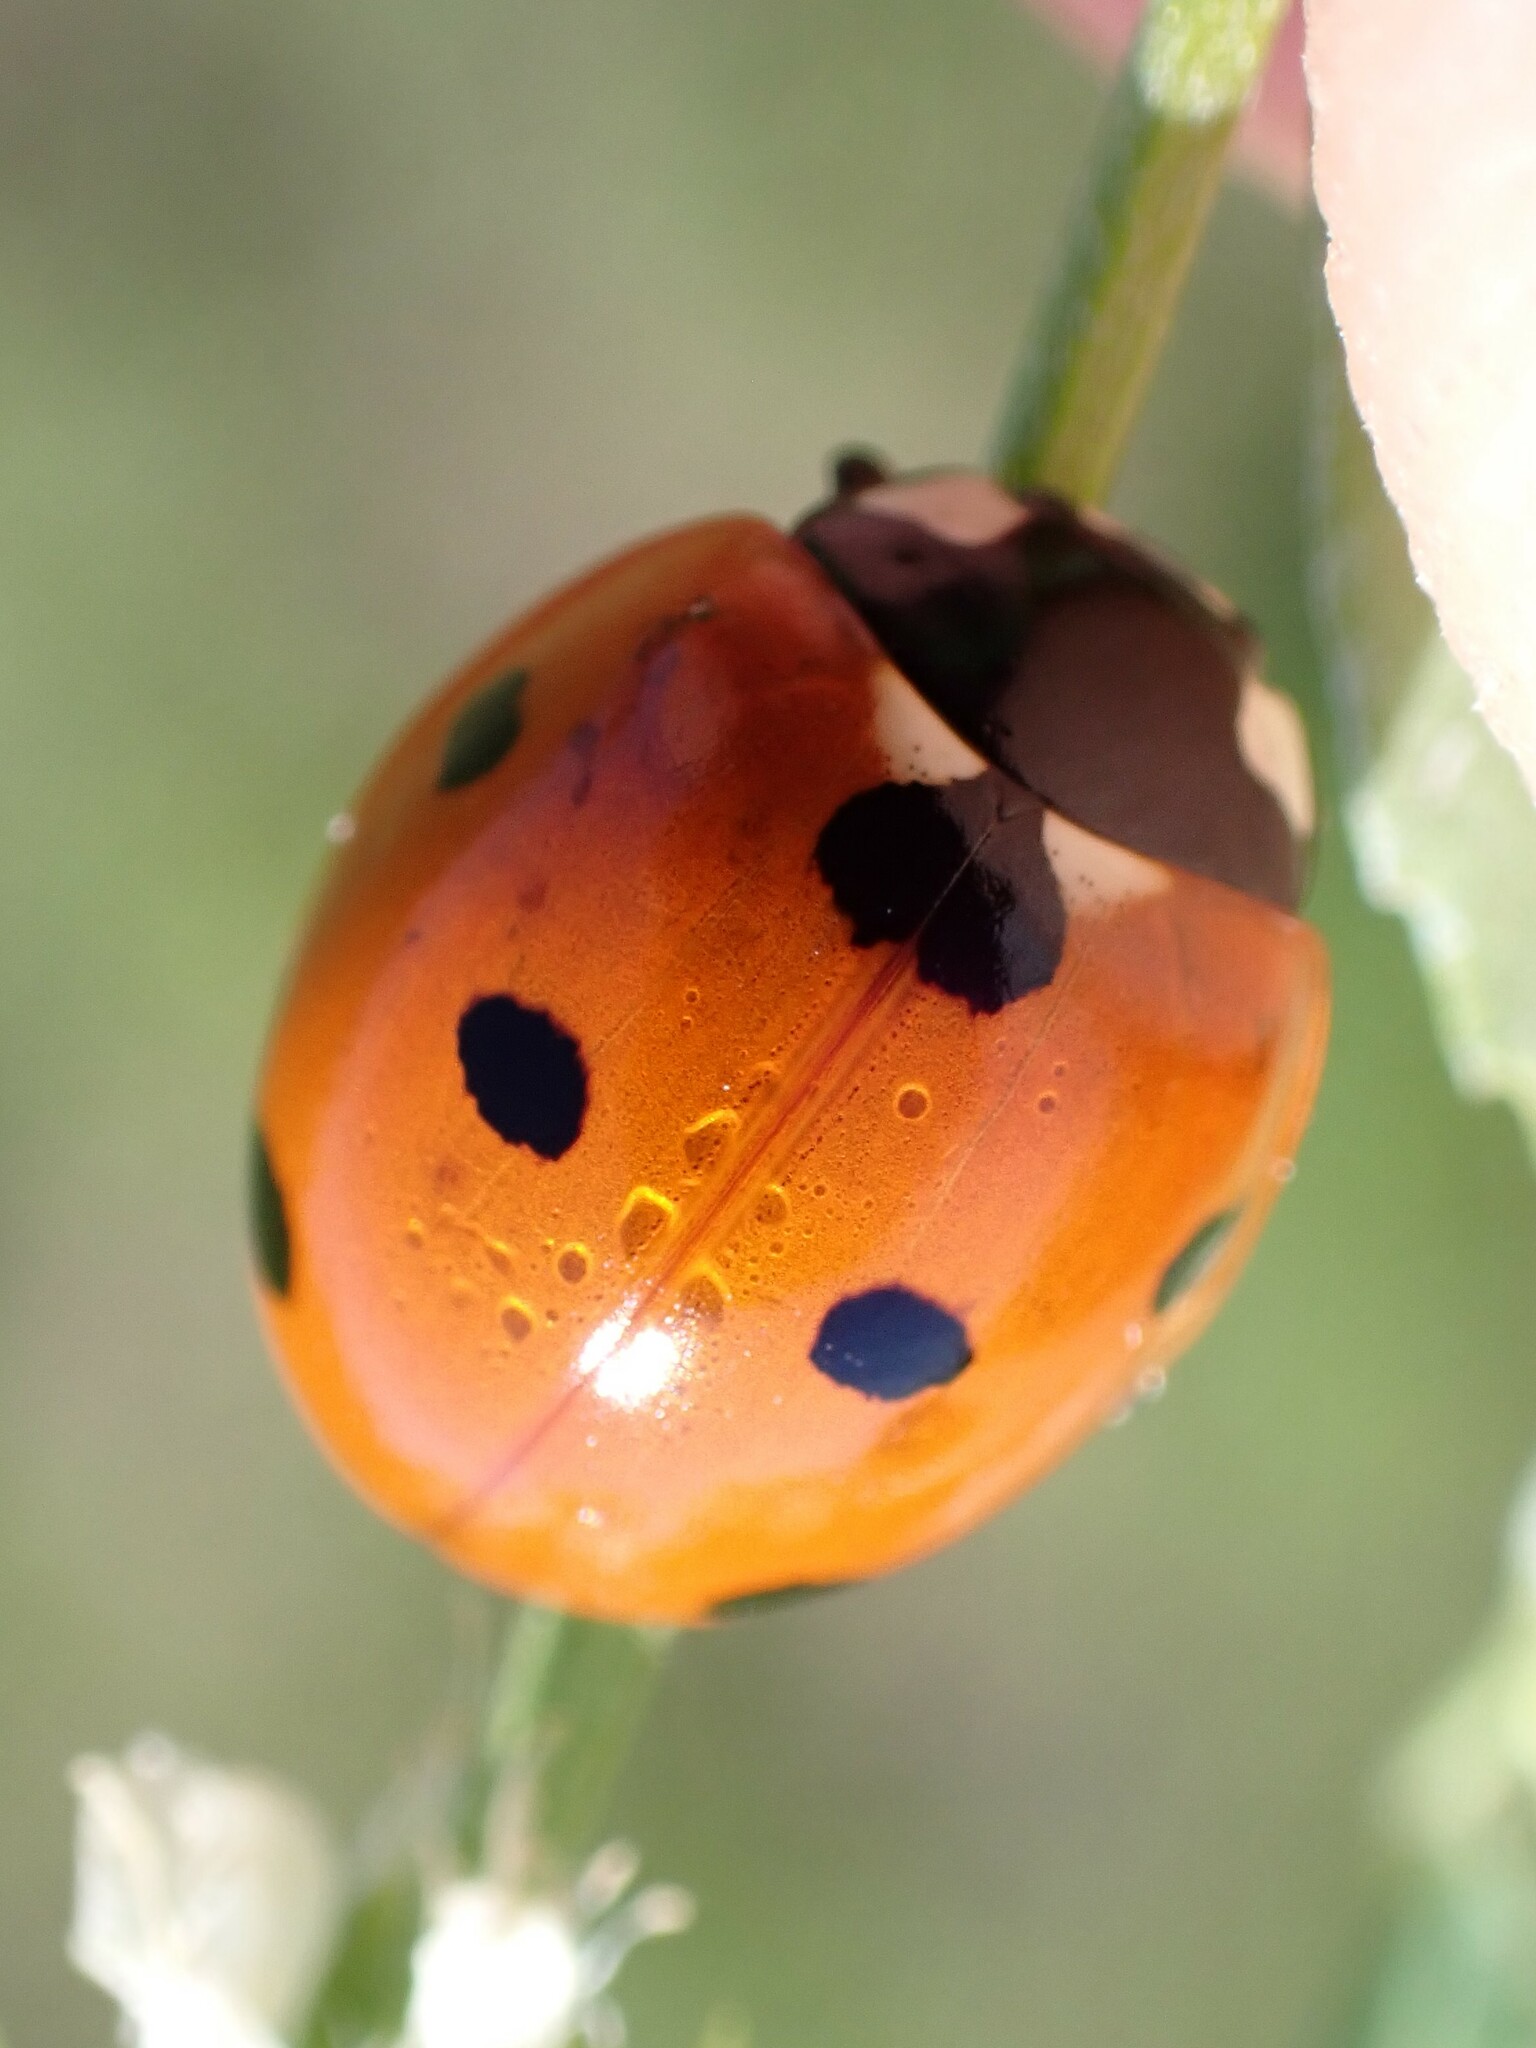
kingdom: Animalia
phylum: Arthropoda
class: Insecta
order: Coleoptera
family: Coccinellidae
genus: Coccinella
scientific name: Coccinella septempunctata
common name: Sevenspotted lady beetle
